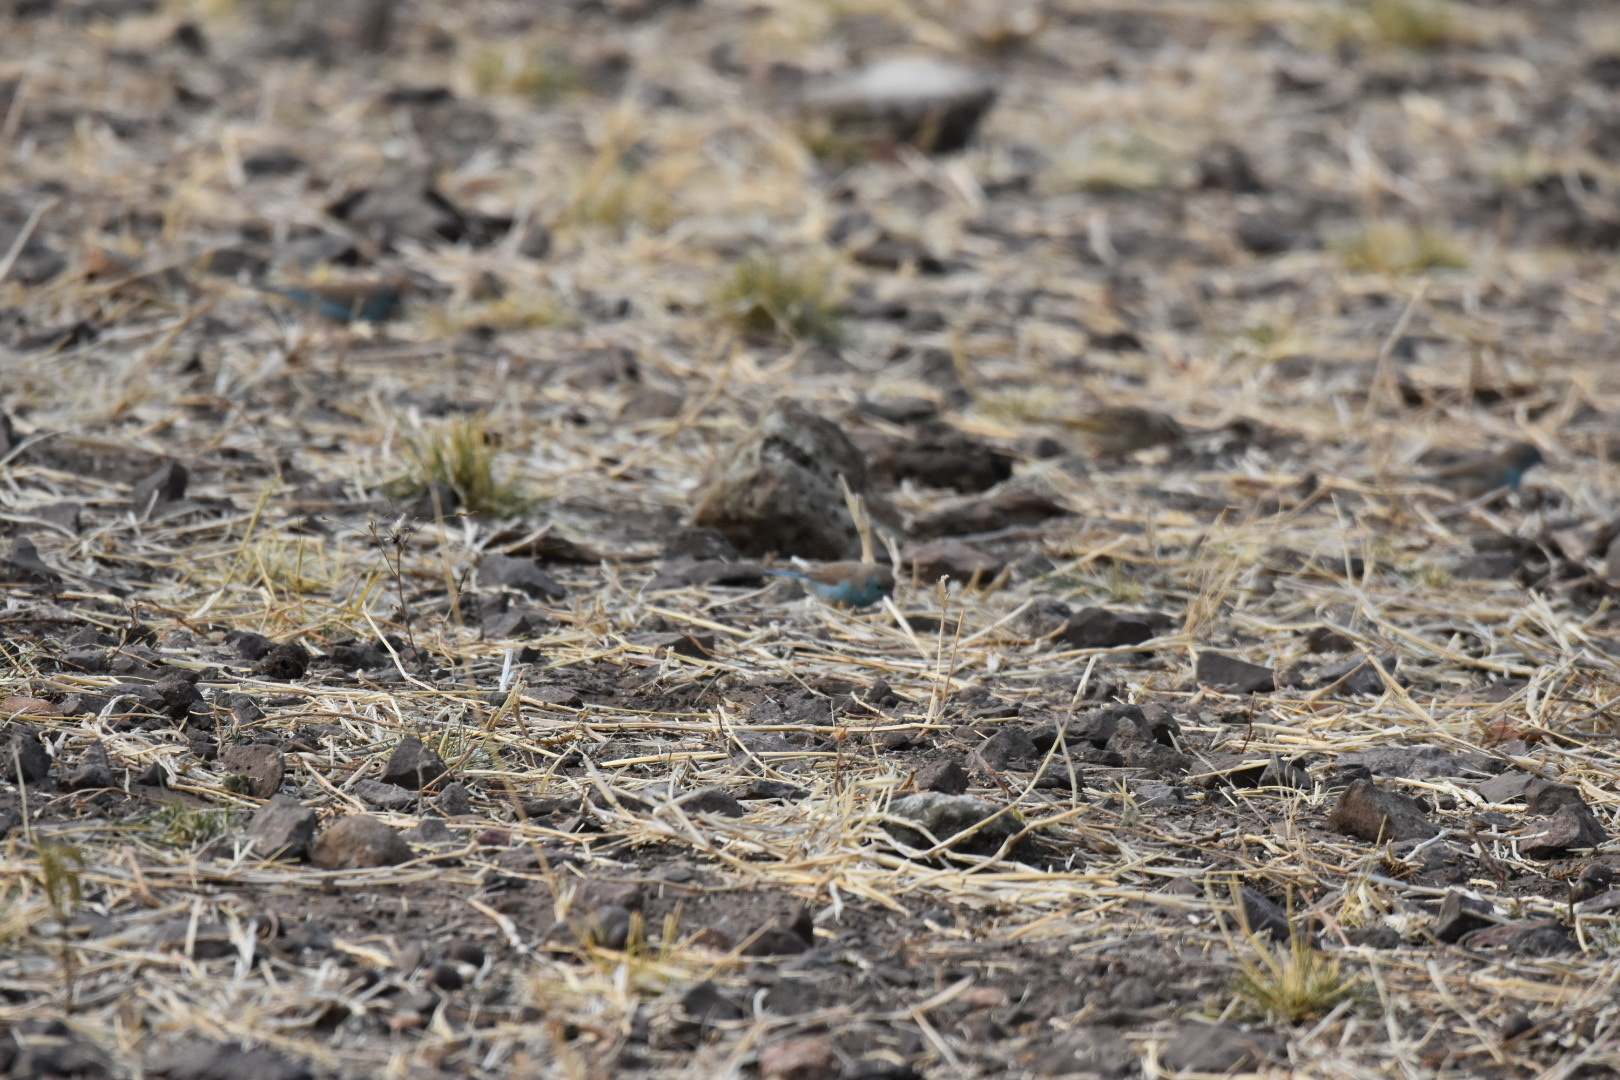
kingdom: Animalia
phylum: Chordata
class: Aves
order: Passeriformes
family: Estrildidae
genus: Uraeginthus
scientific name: Uraeginthus angolensis
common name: Blue waxbill
